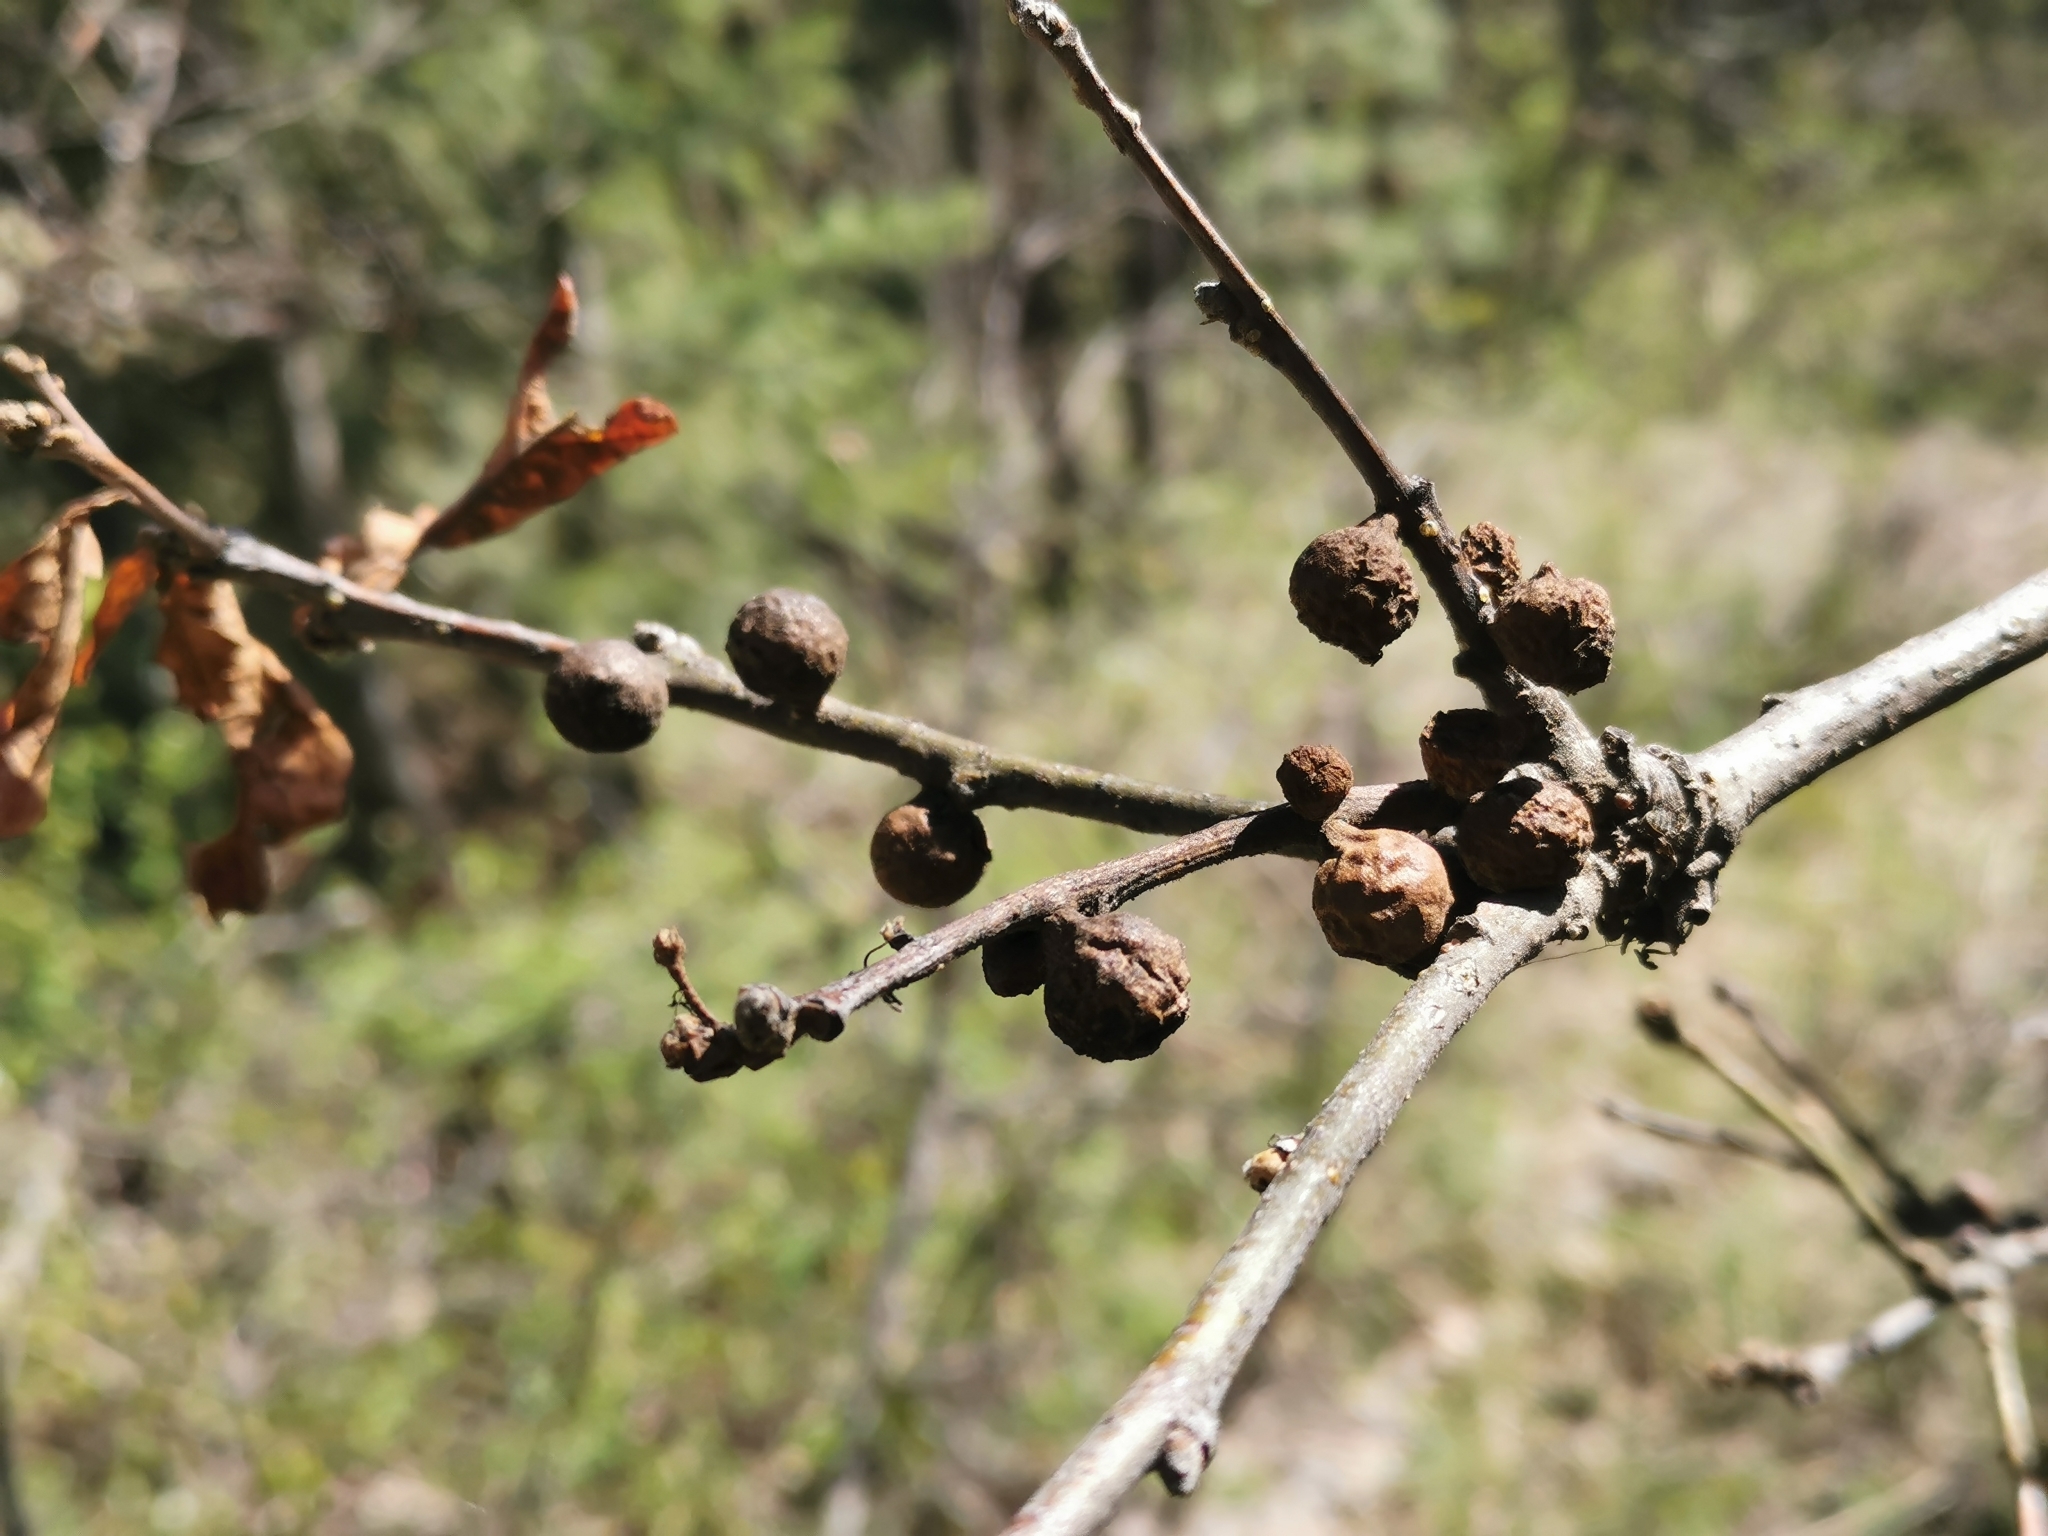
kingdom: Animalia
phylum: Arthropoda
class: Insecta
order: Hymenoptera
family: Cynipidae
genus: Burnettweldia
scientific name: Burnettweldia
